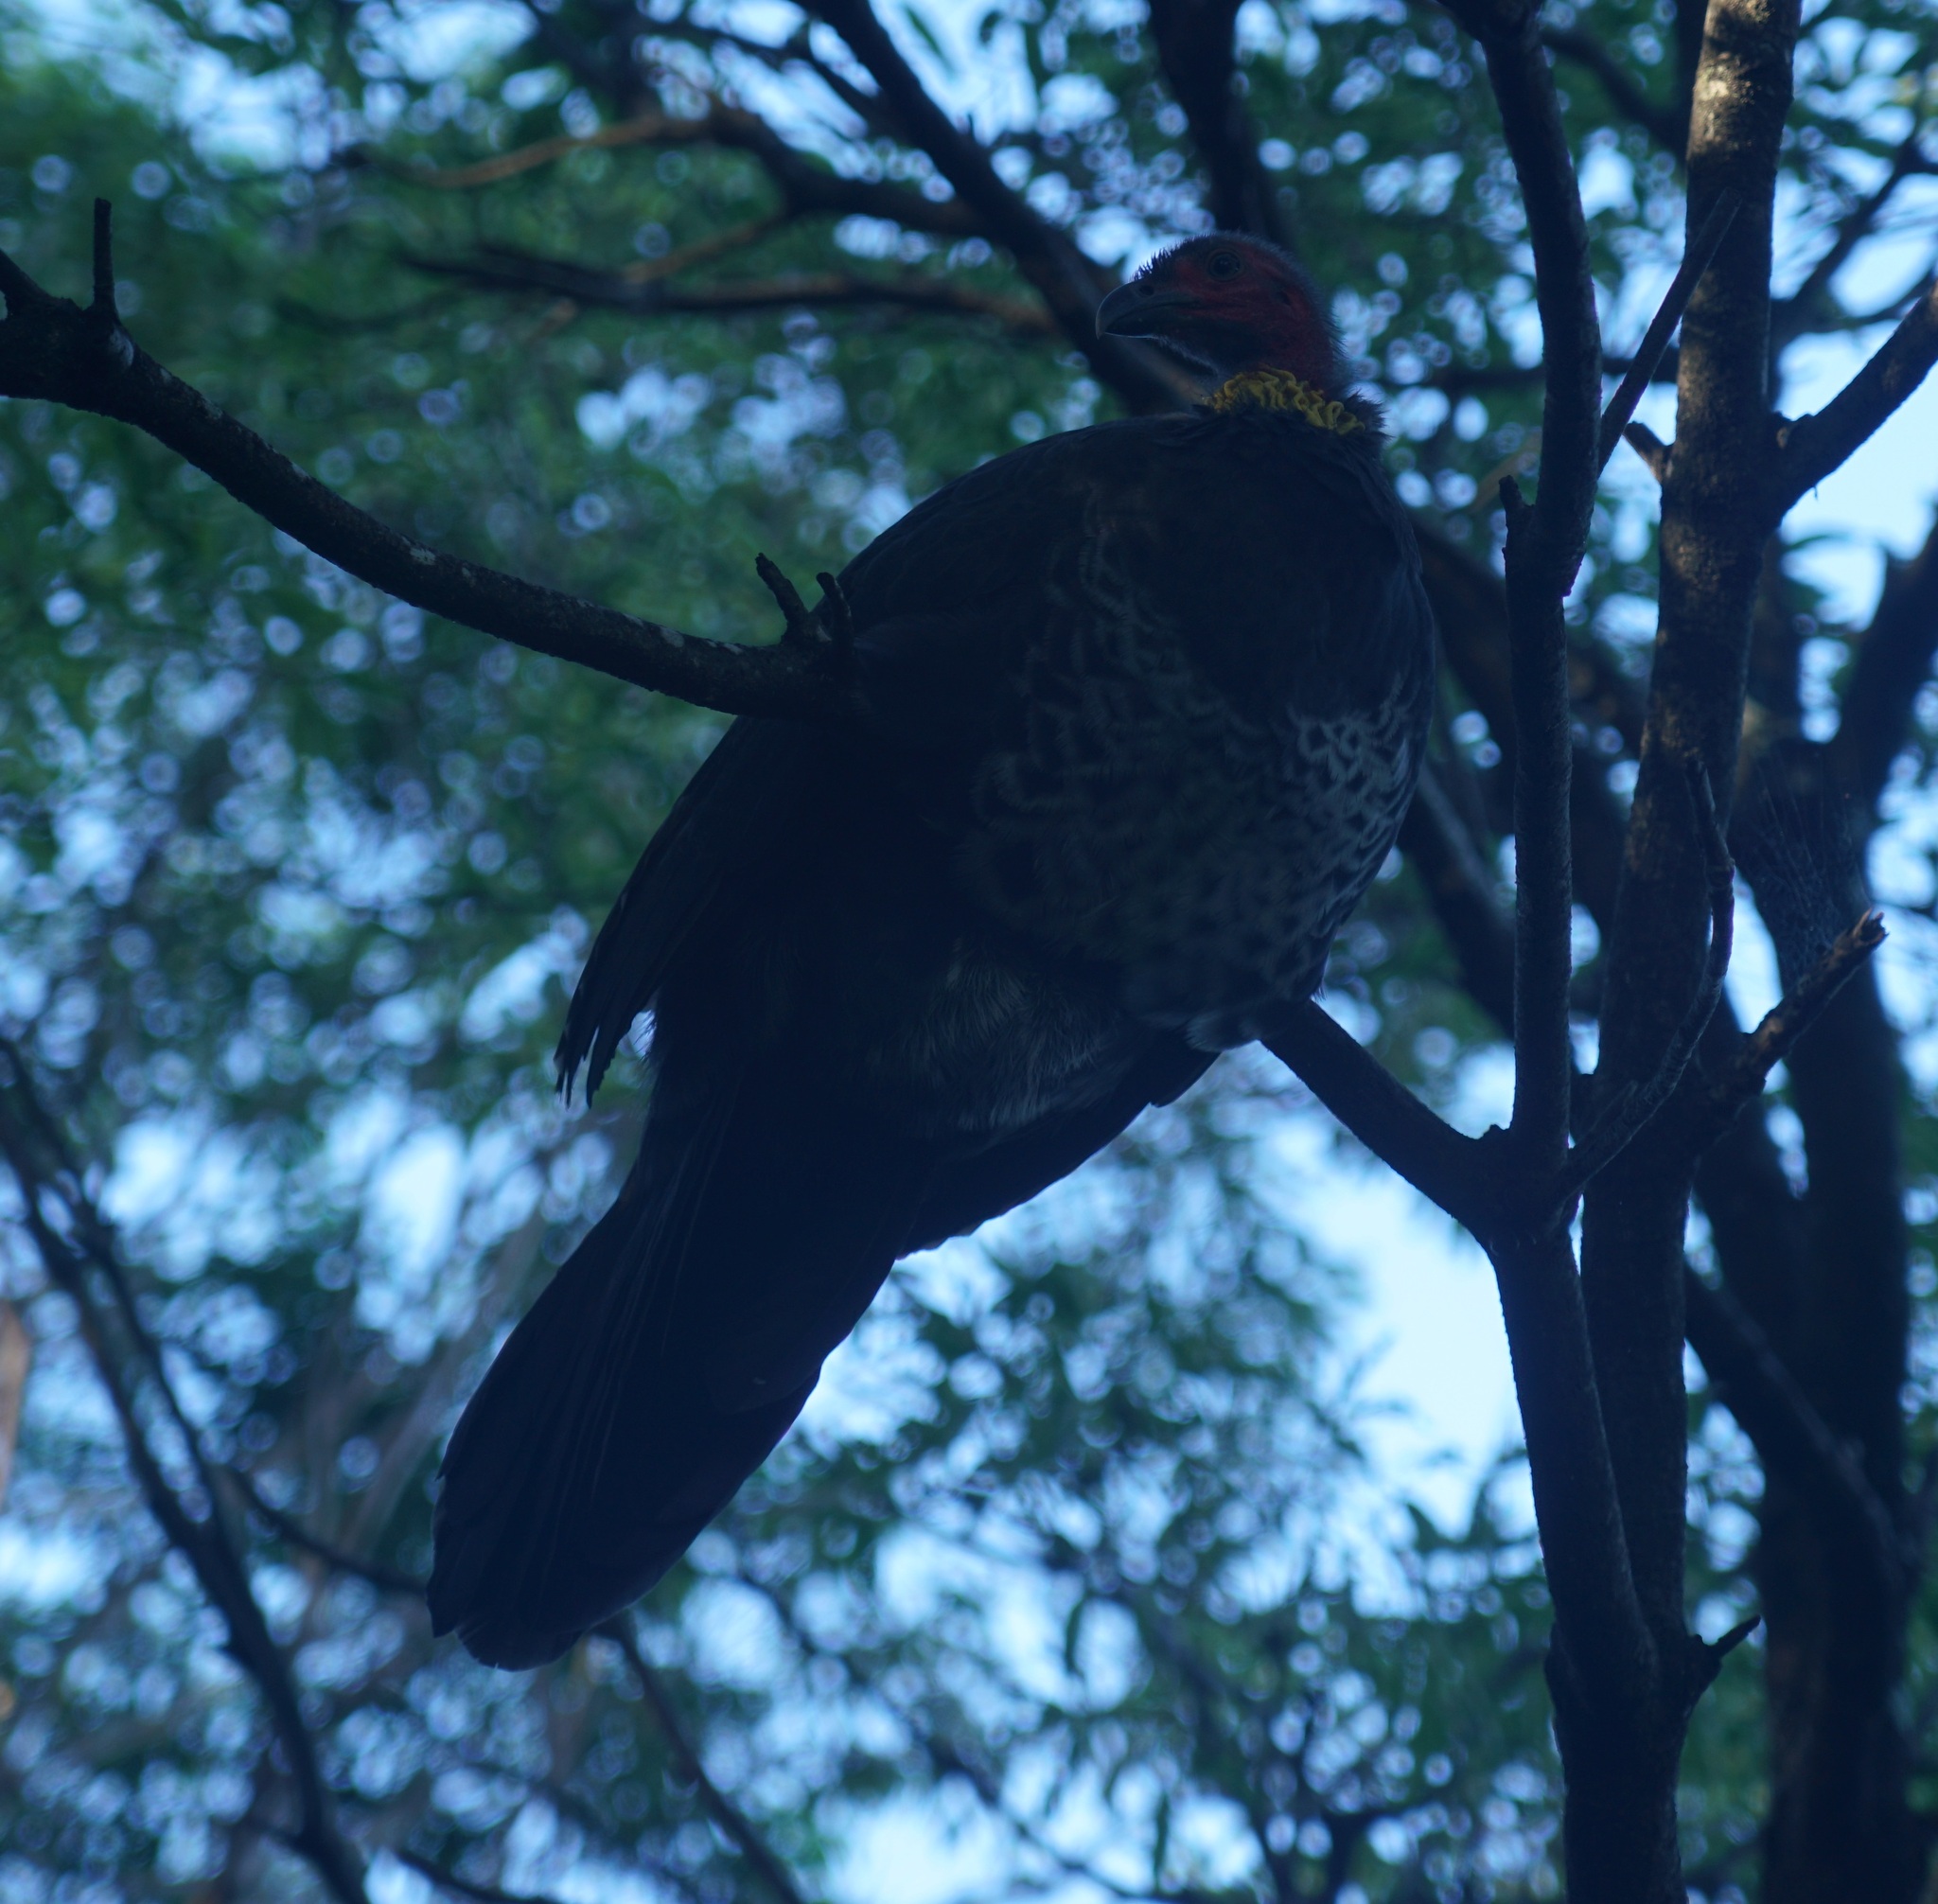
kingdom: Animalia
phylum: Chordata
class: Aves
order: Galliformes
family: Megapodiidae
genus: Alectura
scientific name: Alectura lathami
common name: Australian brushturkey
